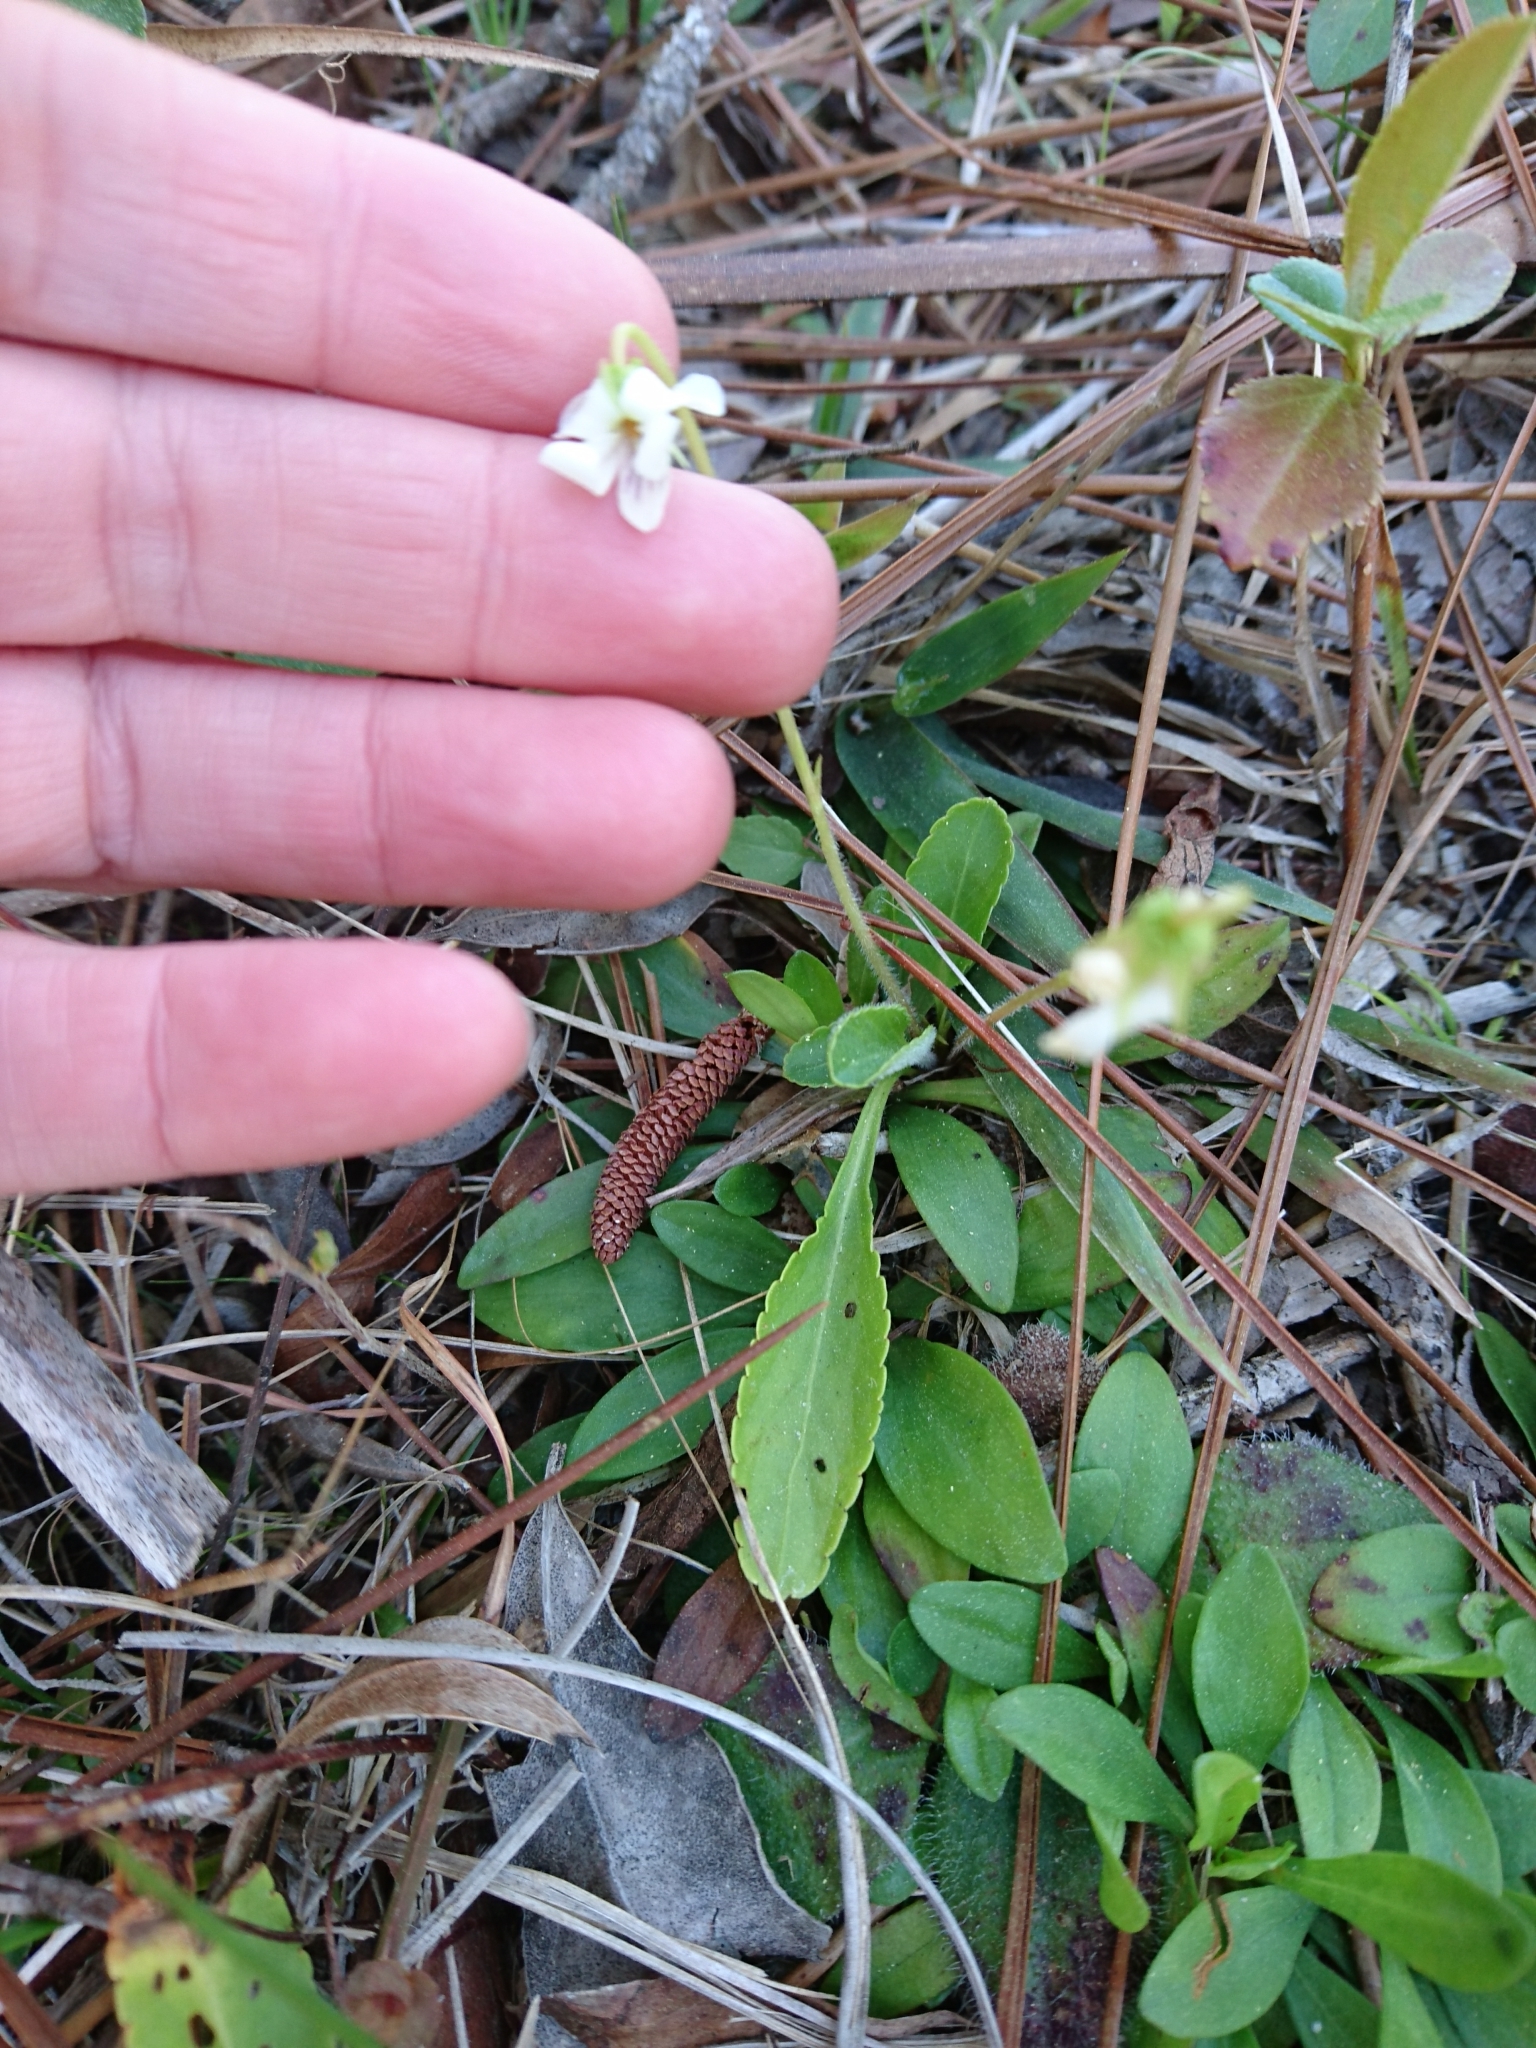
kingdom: Plantae
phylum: Tracheophyta
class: Magnoliopsida
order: Malpighiales
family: Violaceae
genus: Viola
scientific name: Viola lanceolata
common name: Bog white violet
